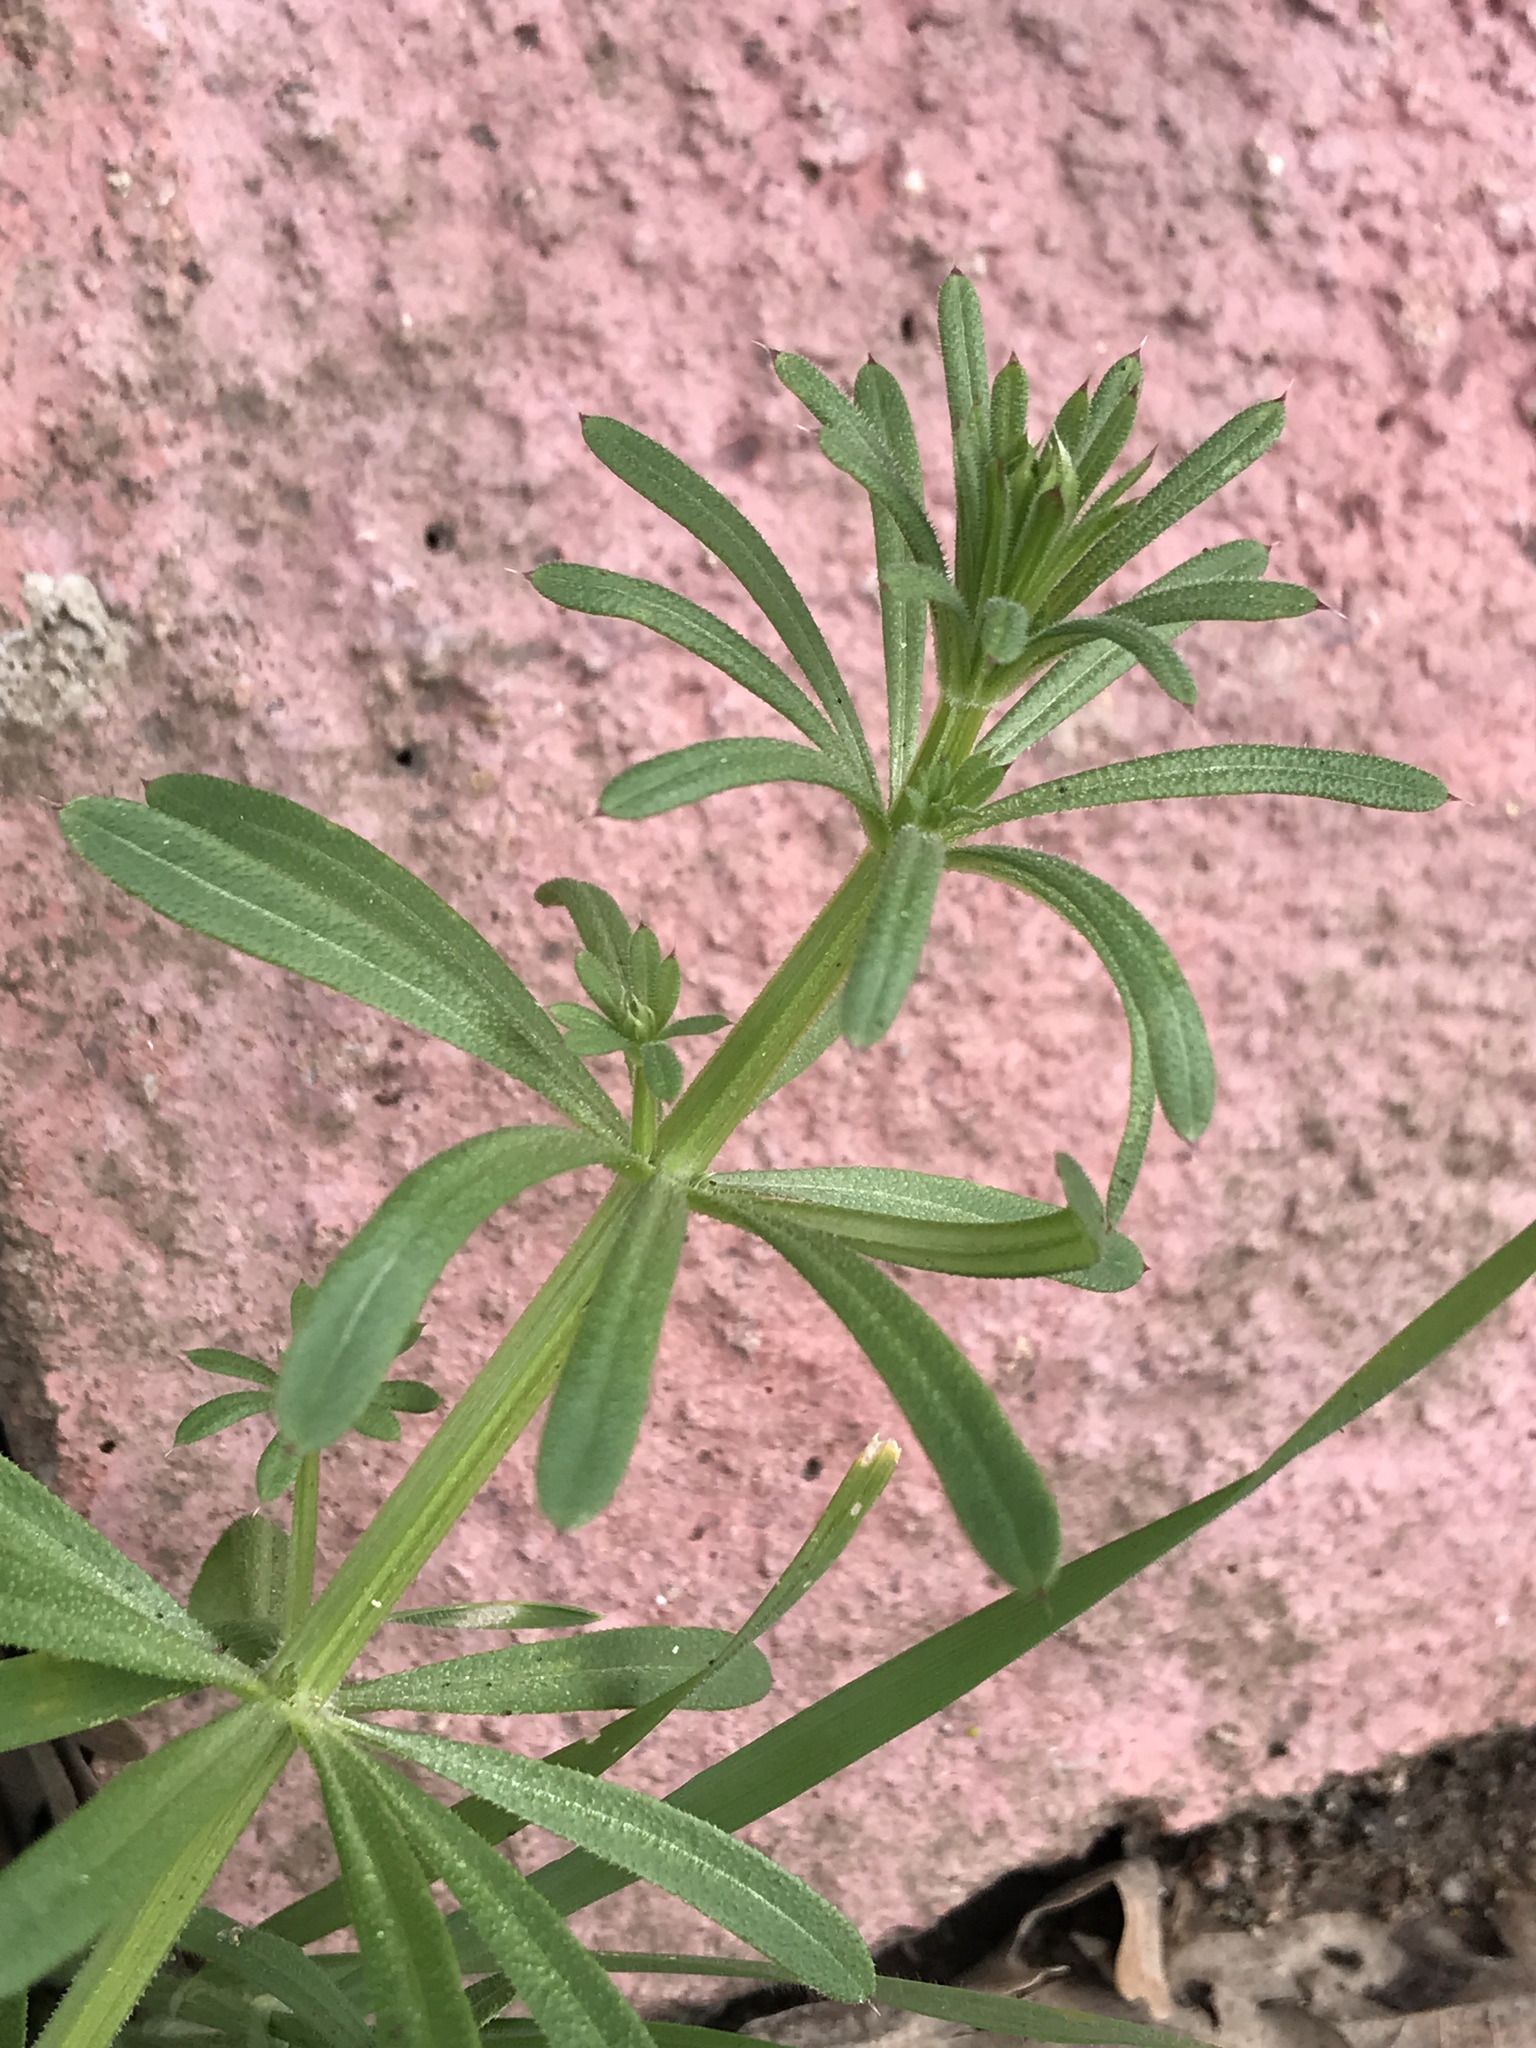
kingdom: Plantae
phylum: Tracheophyta
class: Magnoliopsida
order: Gentianales
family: Rubiaceae
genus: Galium
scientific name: Galium aparine
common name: Cleavers
